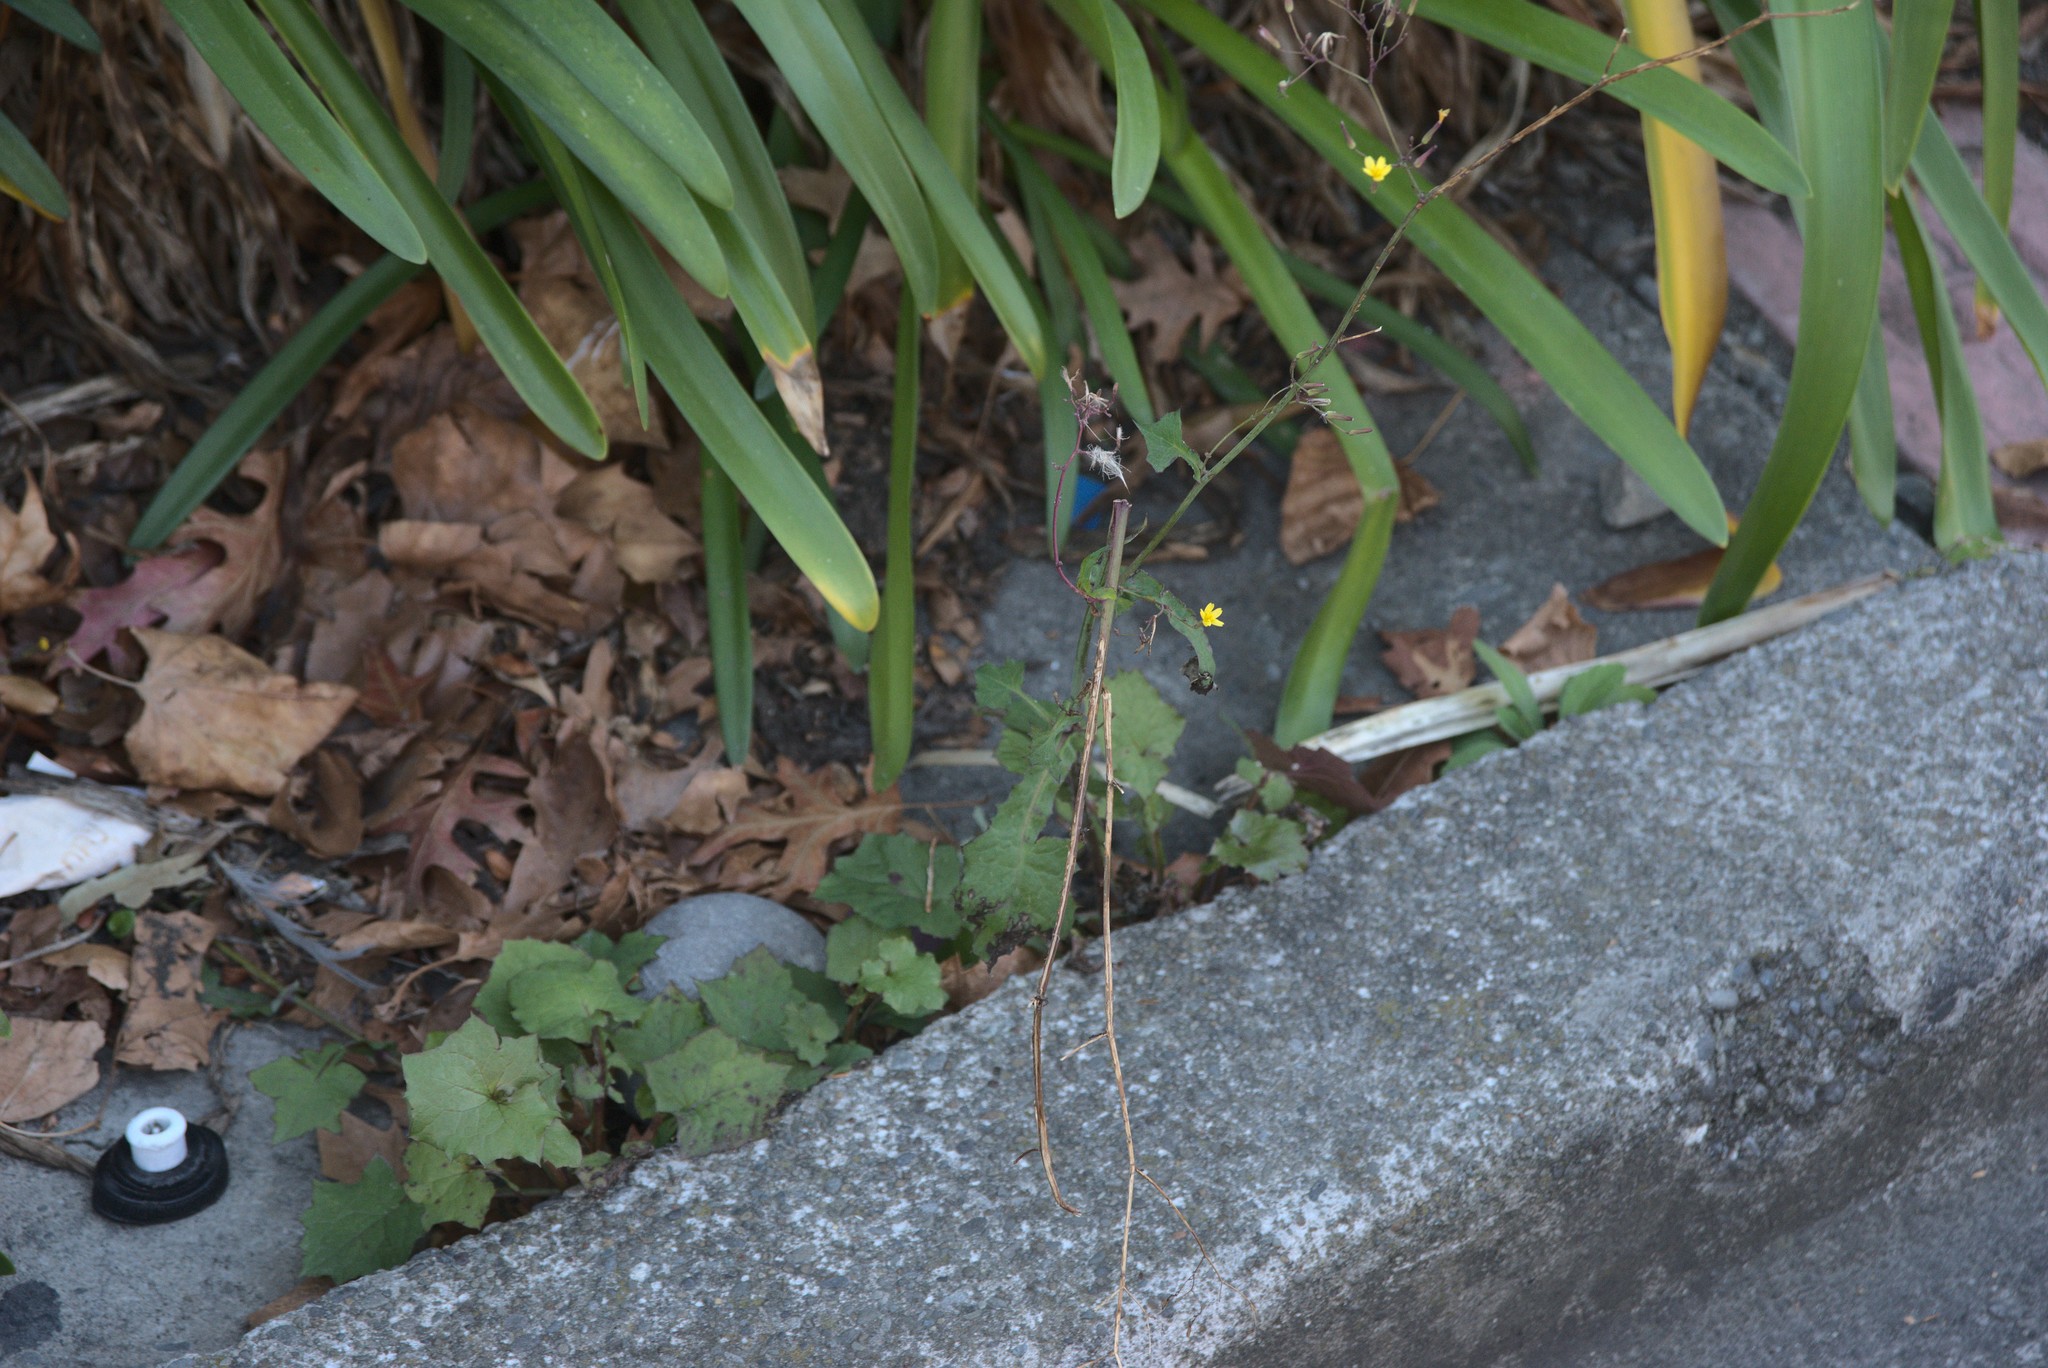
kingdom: Plantae
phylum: Tracheophyta
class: Magnoliopsida
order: Asterales
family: Asteraceae
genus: Mycelis
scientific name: Mycelis muralis
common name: Wall lettuce
